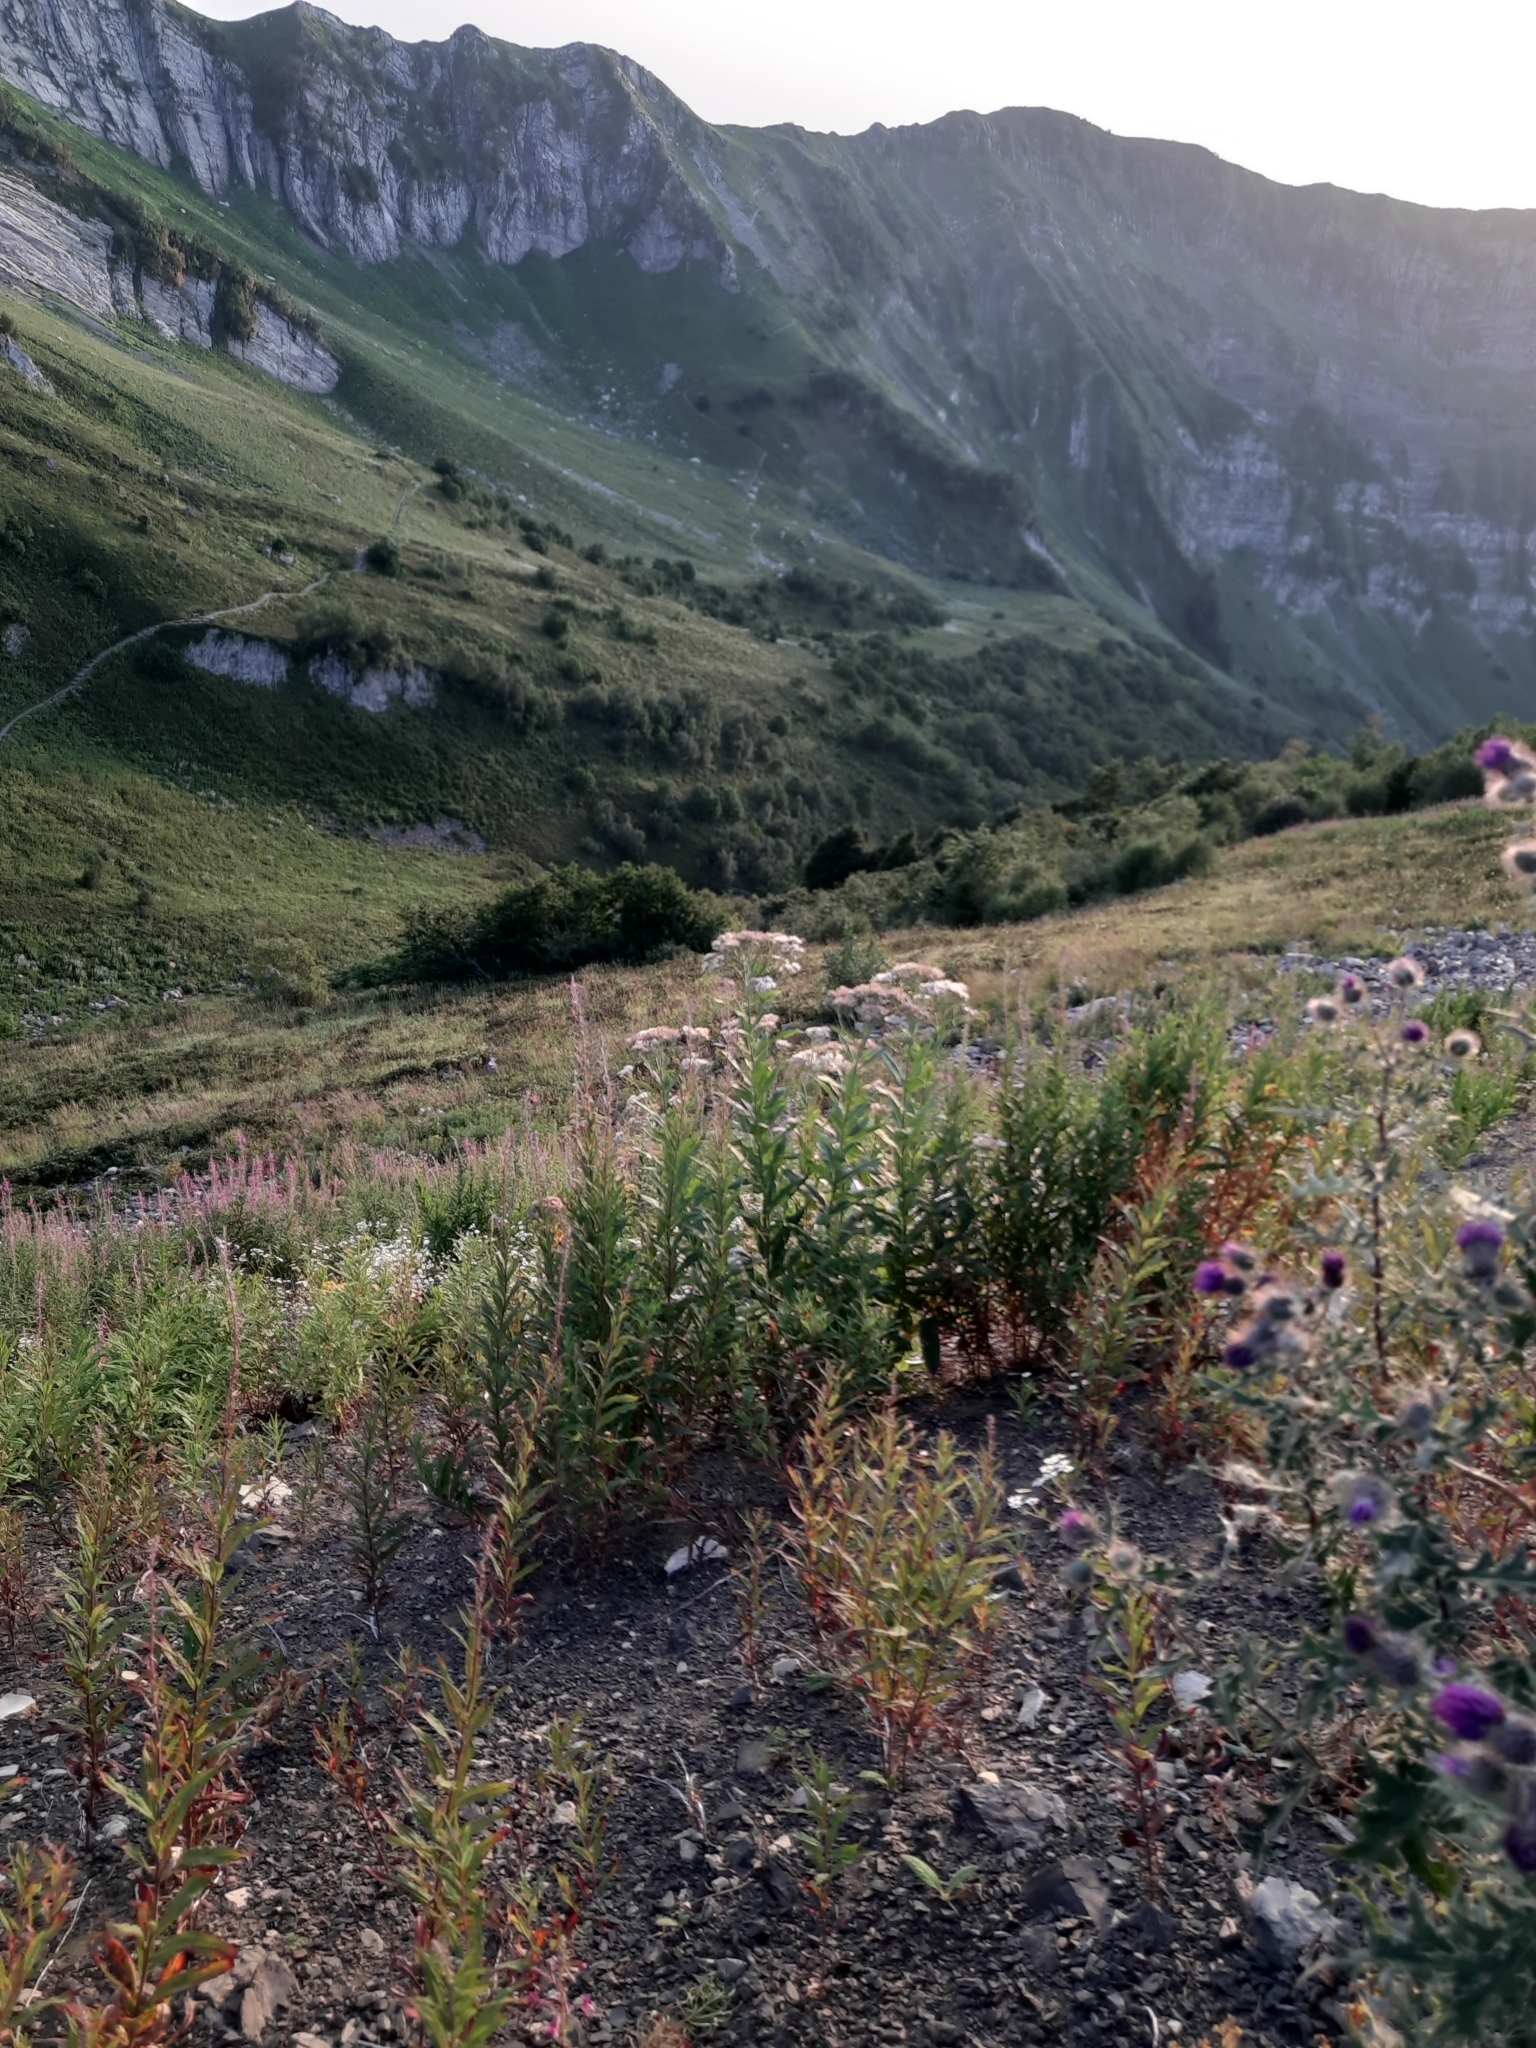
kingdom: Plantae
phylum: Tracheophyta
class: Magnoliopsida
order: Asterales
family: Asteraceae
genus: Eupatorium
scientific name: Eupatorium cannabinum
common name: Hemp-agrimony
